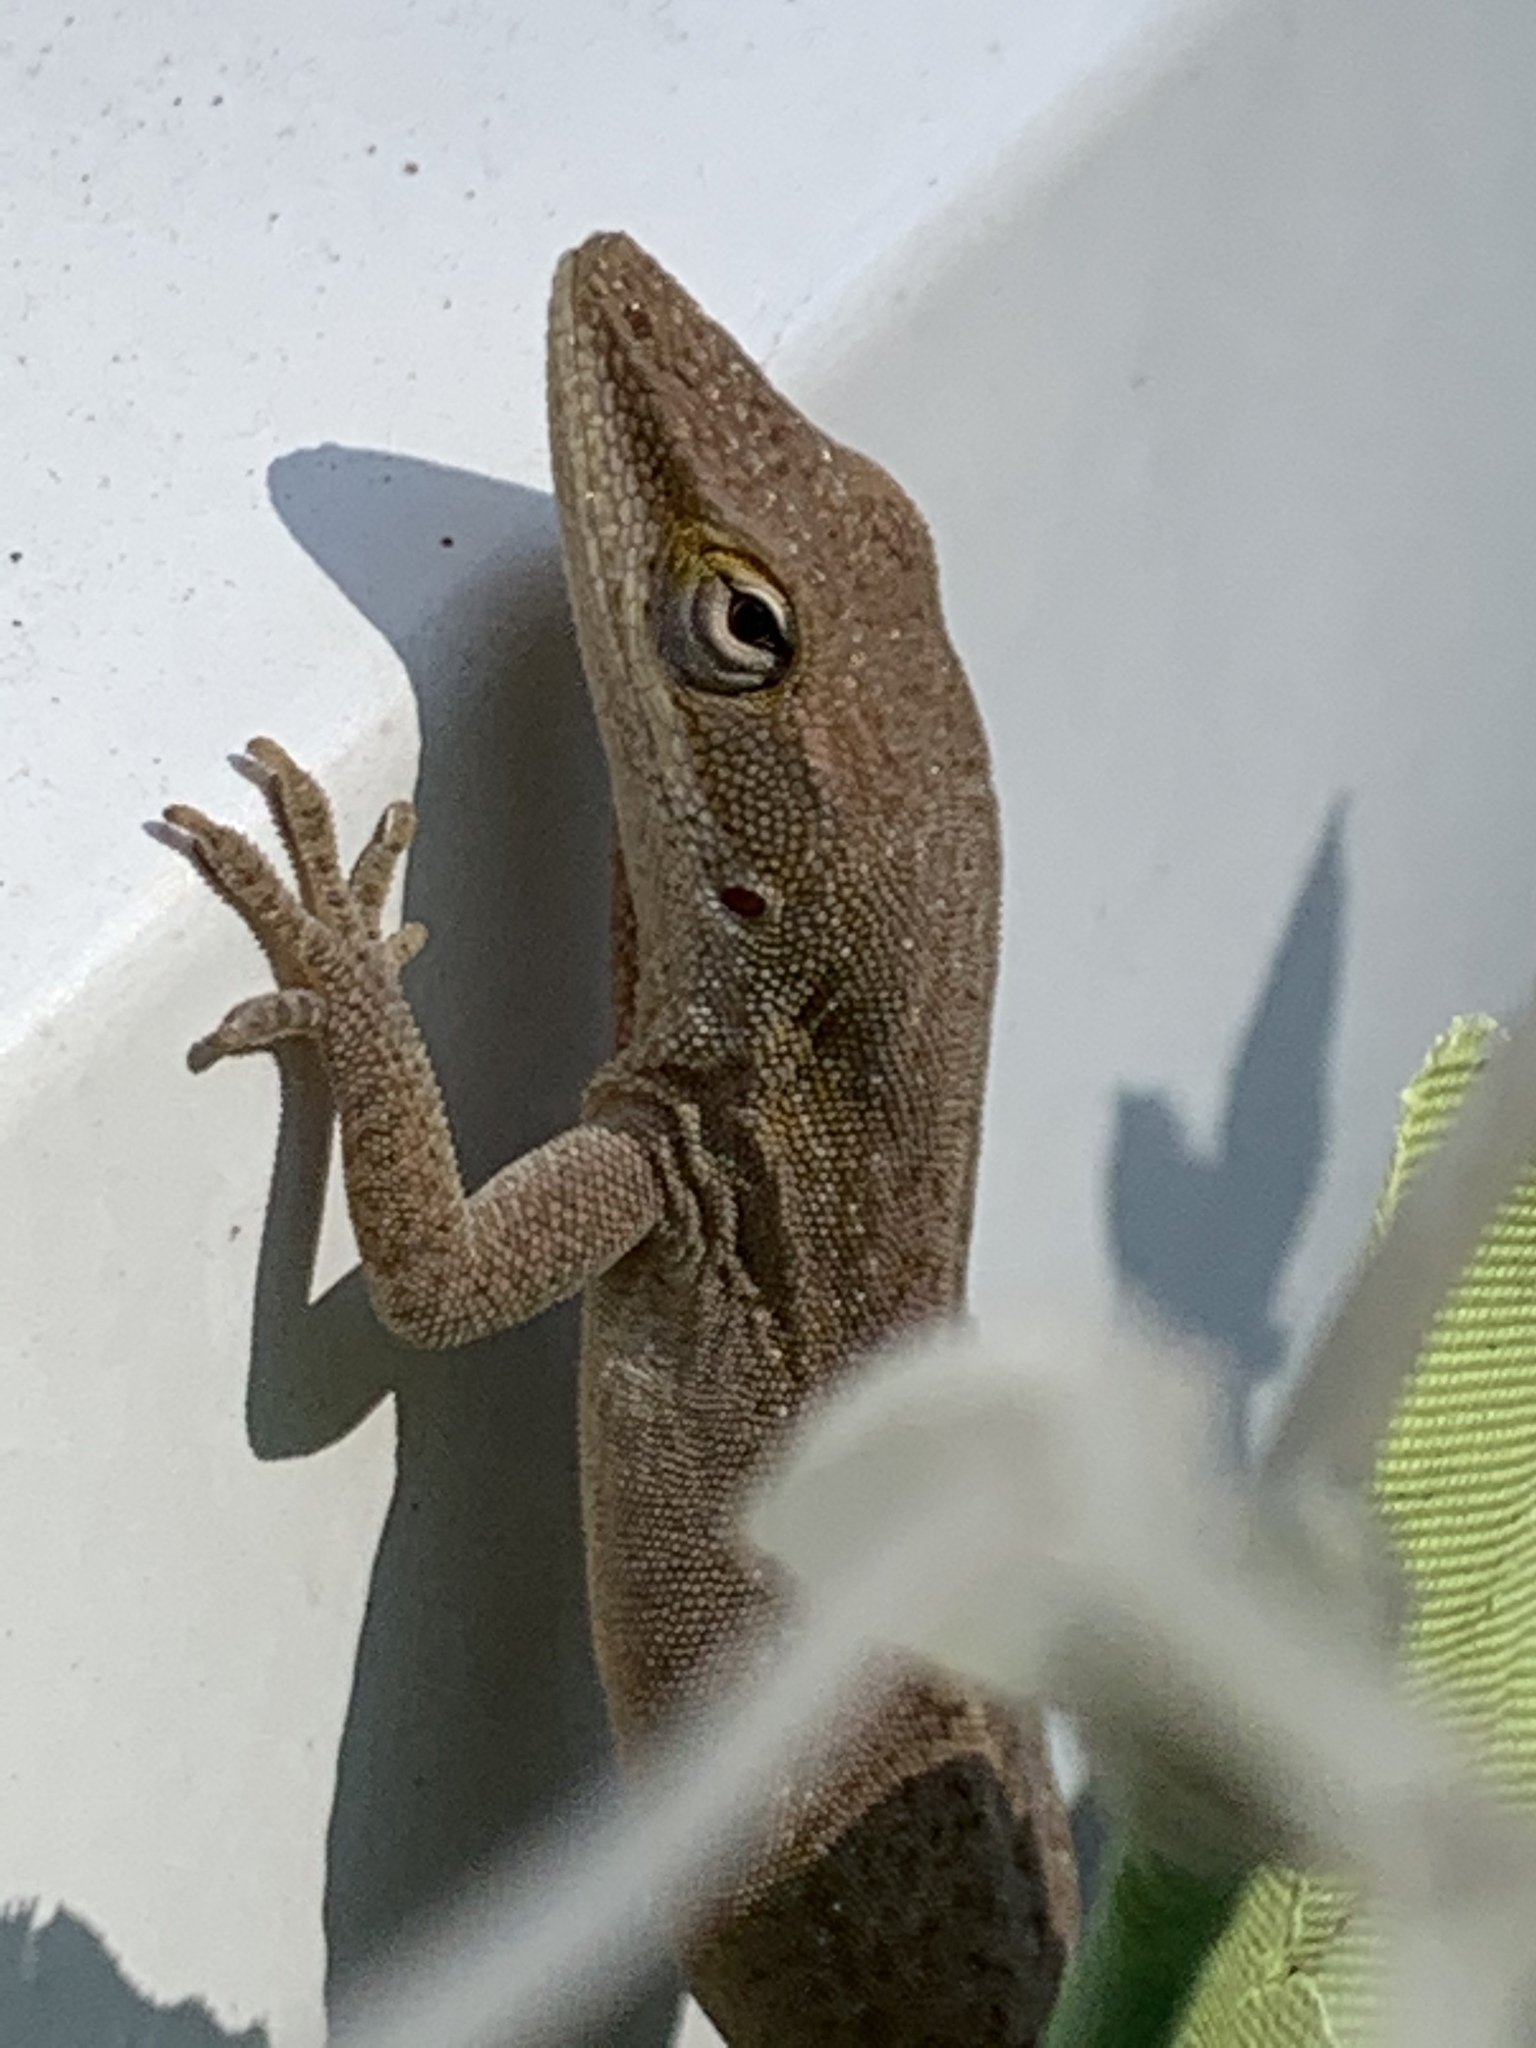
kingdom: Animalia
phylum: Chordata
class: Squamata
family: Dactyloidae
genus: Anolis
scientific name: Anolis carolinensis
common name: Green anole
